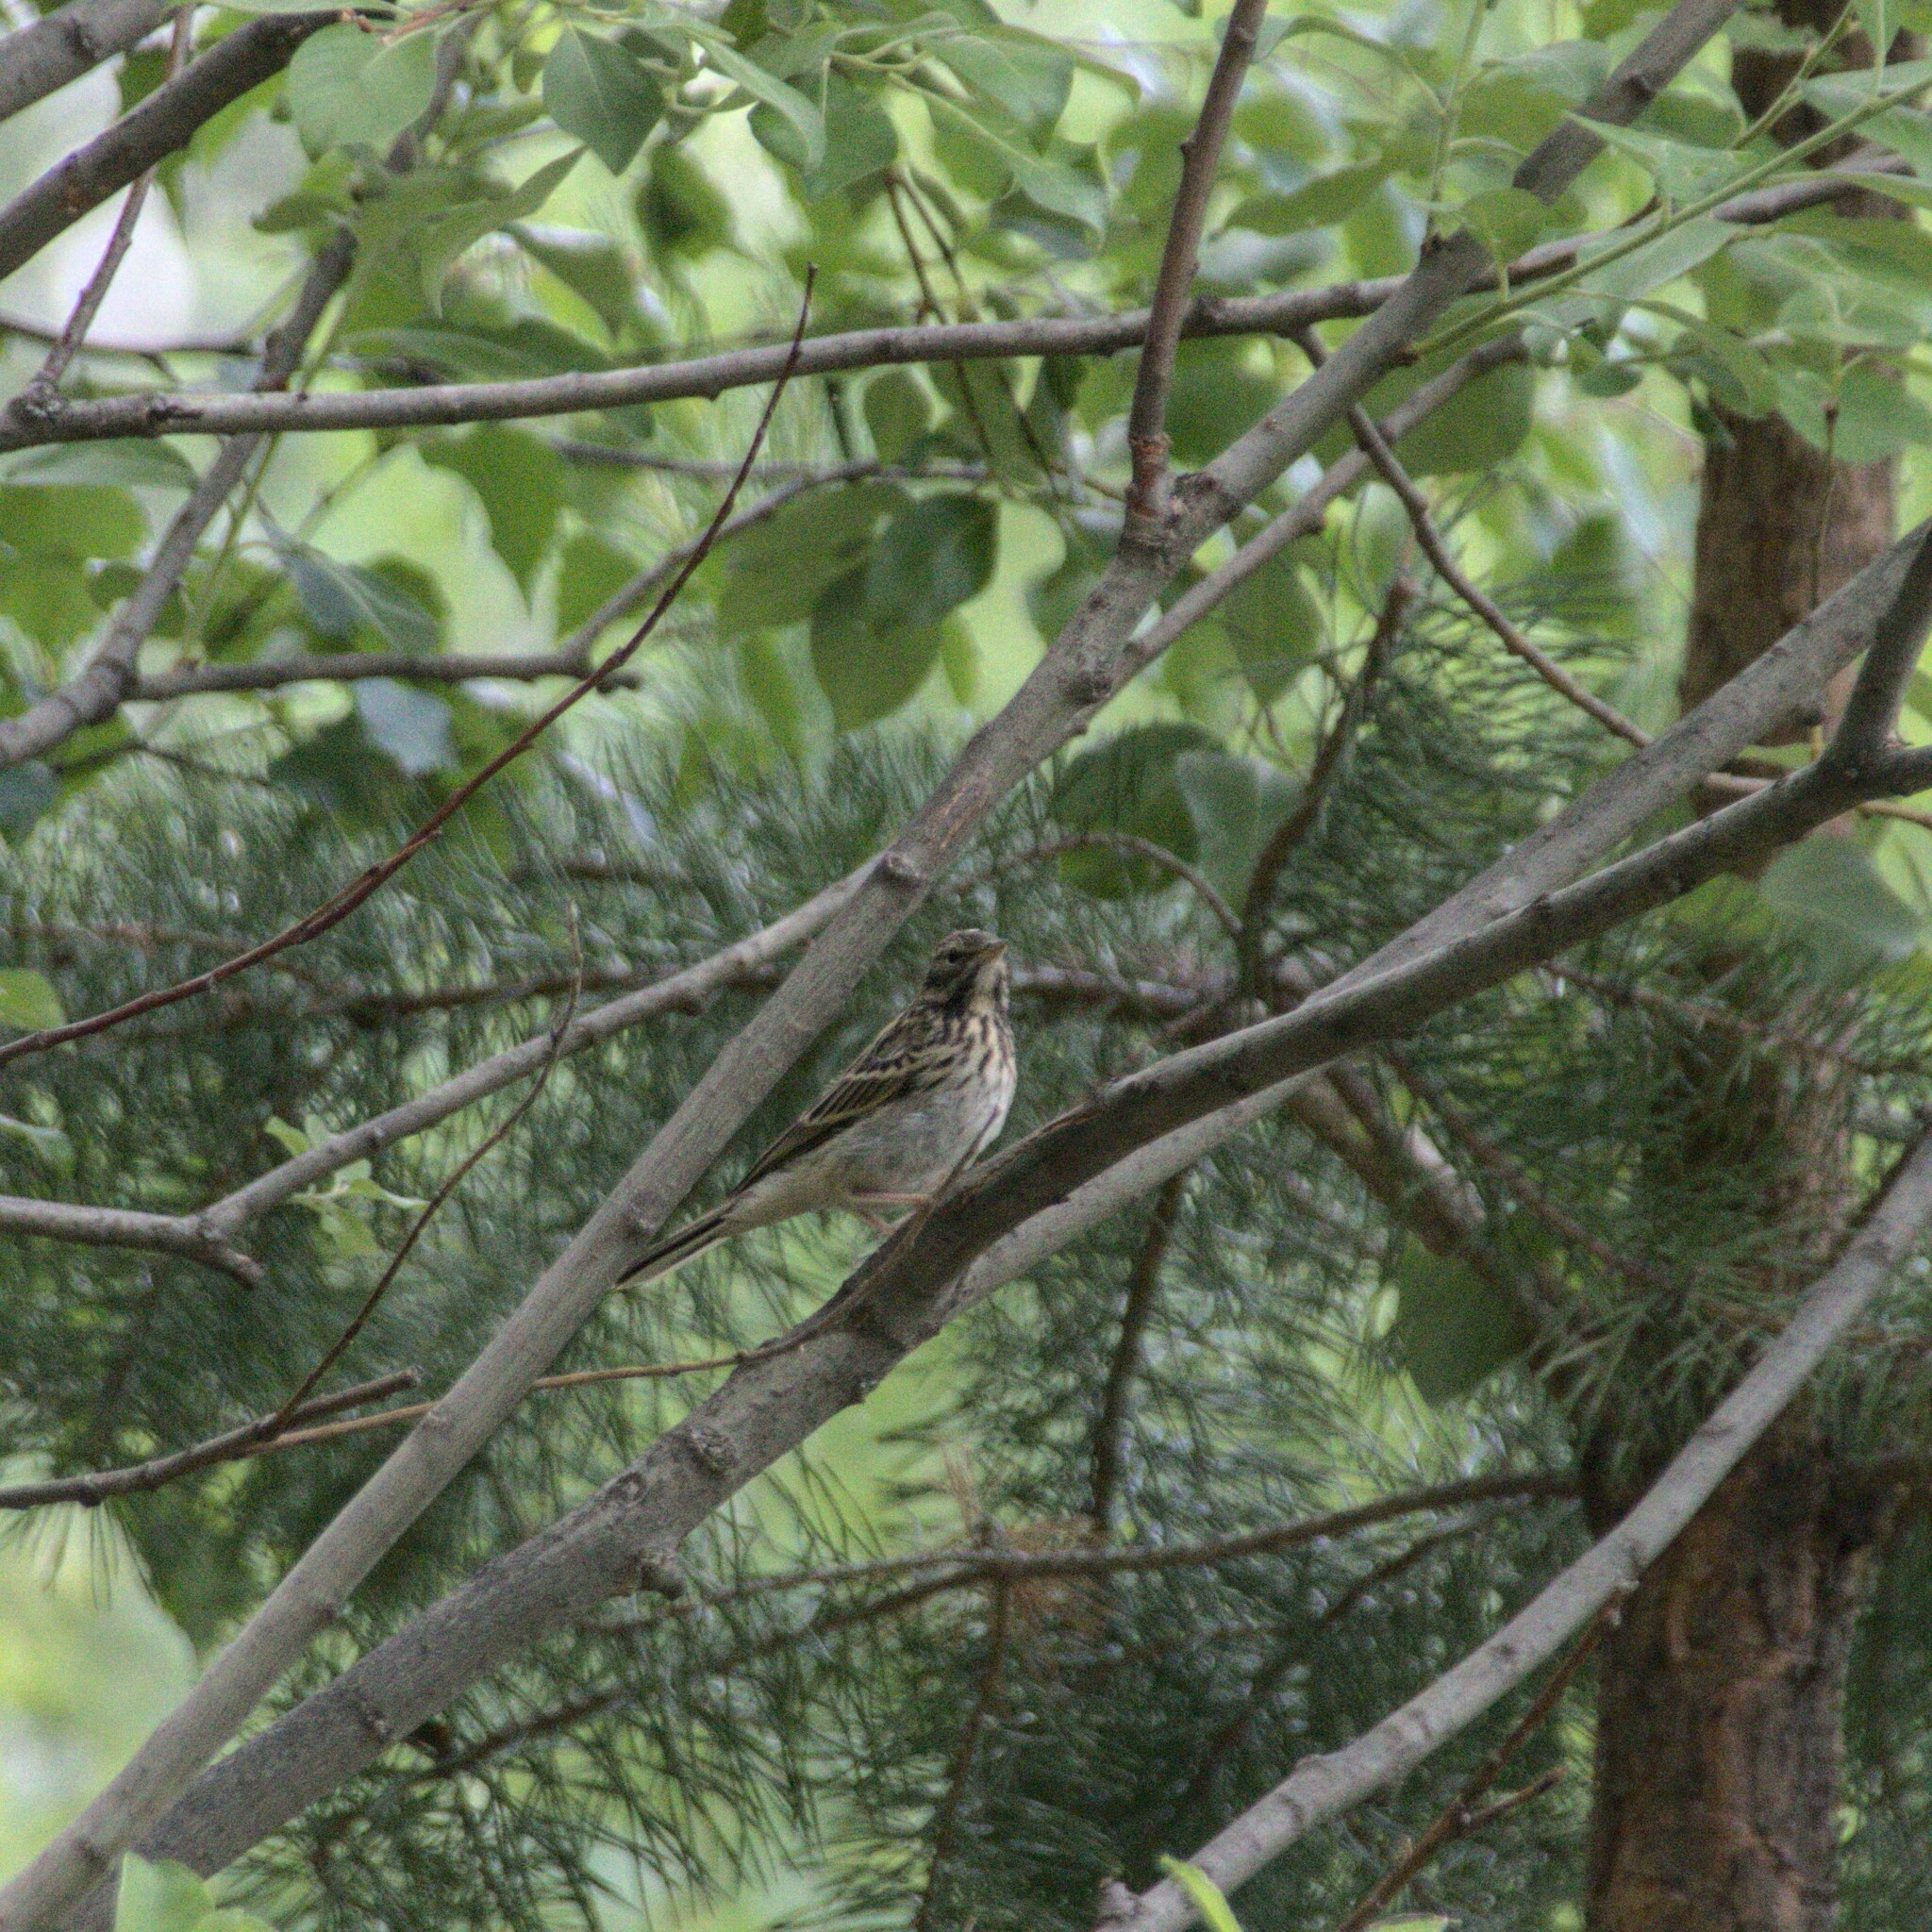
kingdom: Animalia
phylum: Chordata
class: Aves
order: Passeriformes
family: Motacillidae
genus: Anthus
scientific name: Anthus trivialis
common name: Tree pipit
